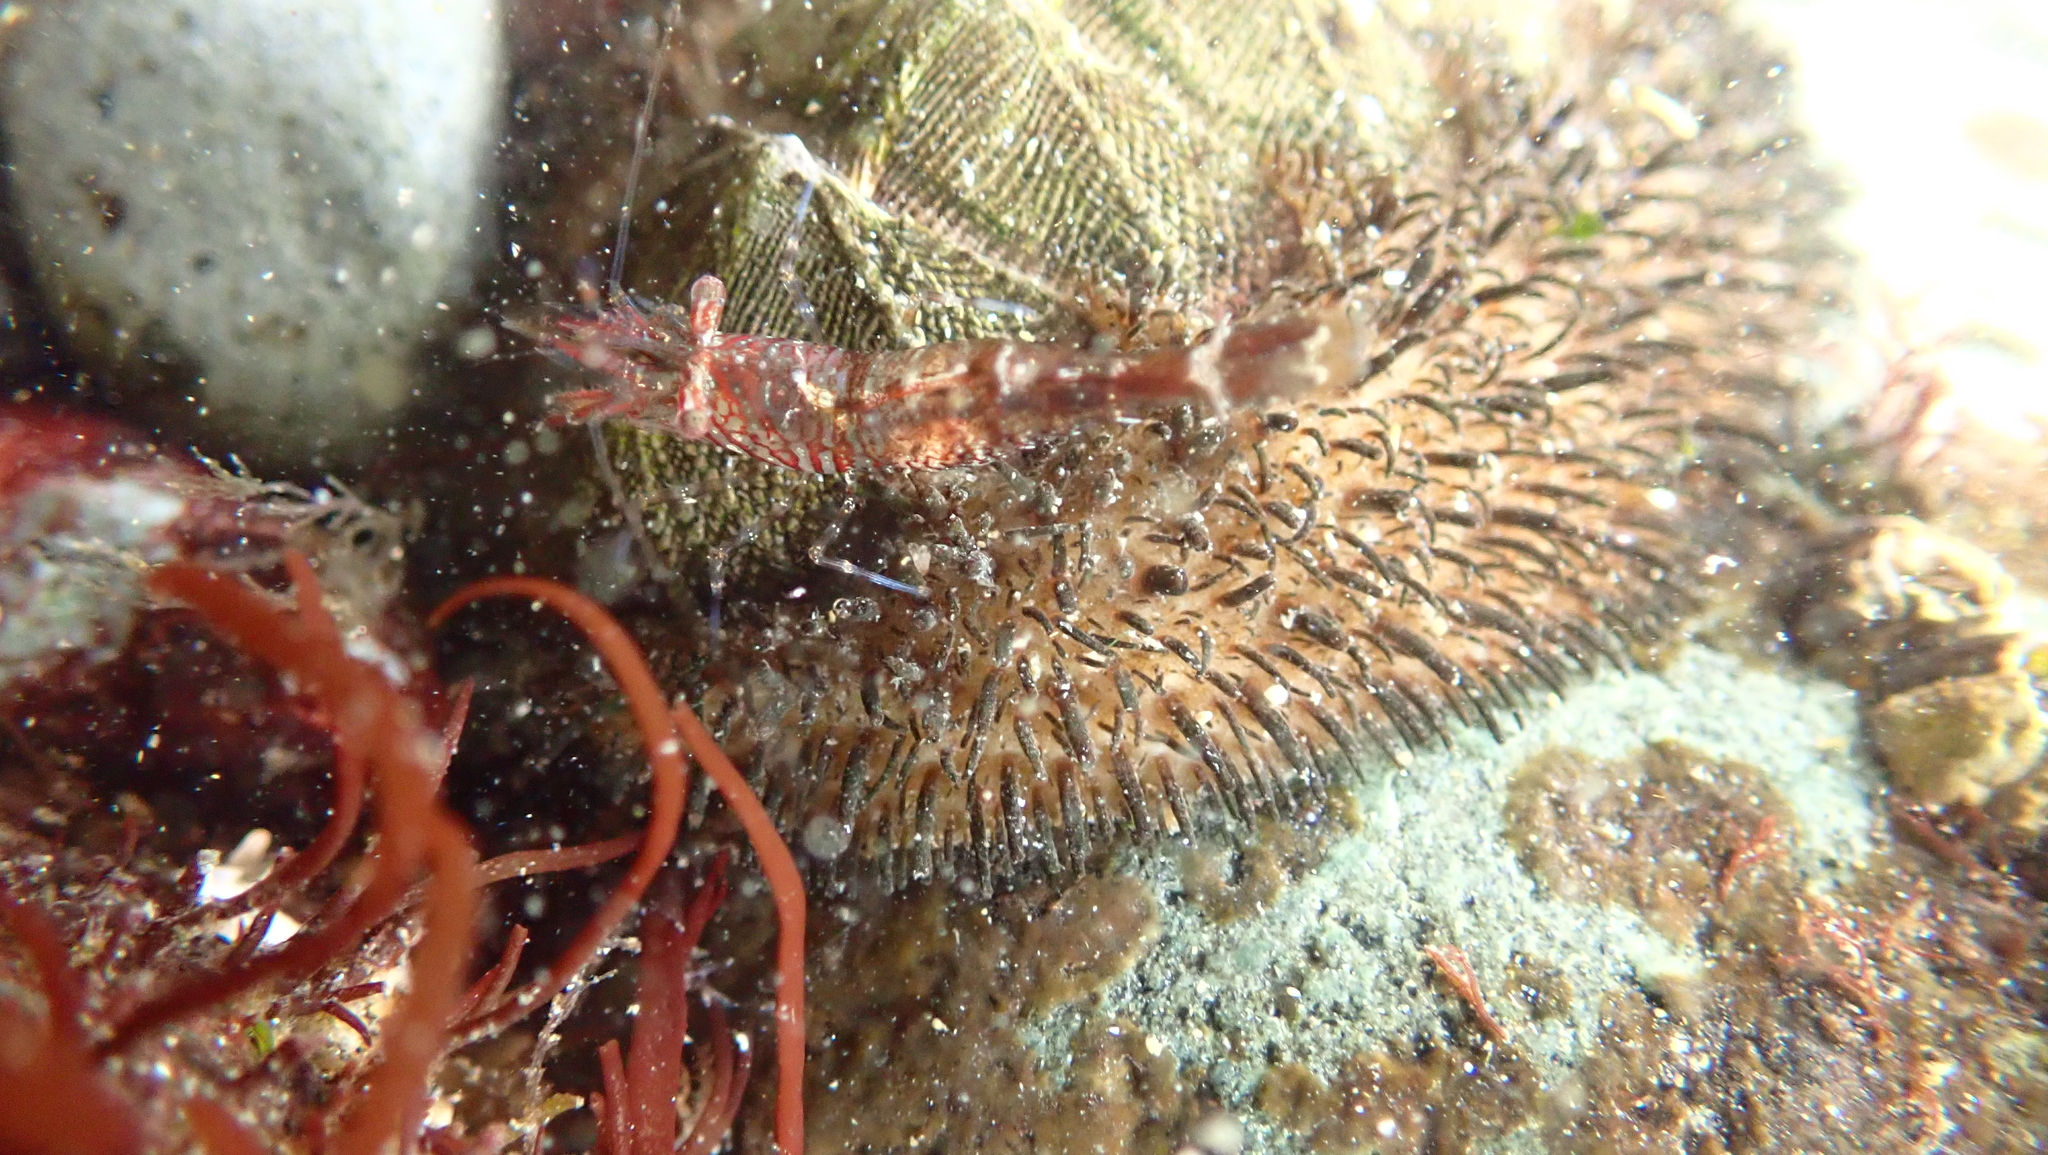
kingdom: Animalia
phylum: Arthropoda
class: Malacostraca
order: Decapoda
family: Thoridae
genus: Heptacarpus
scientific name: Heptacarpus sitchensis
